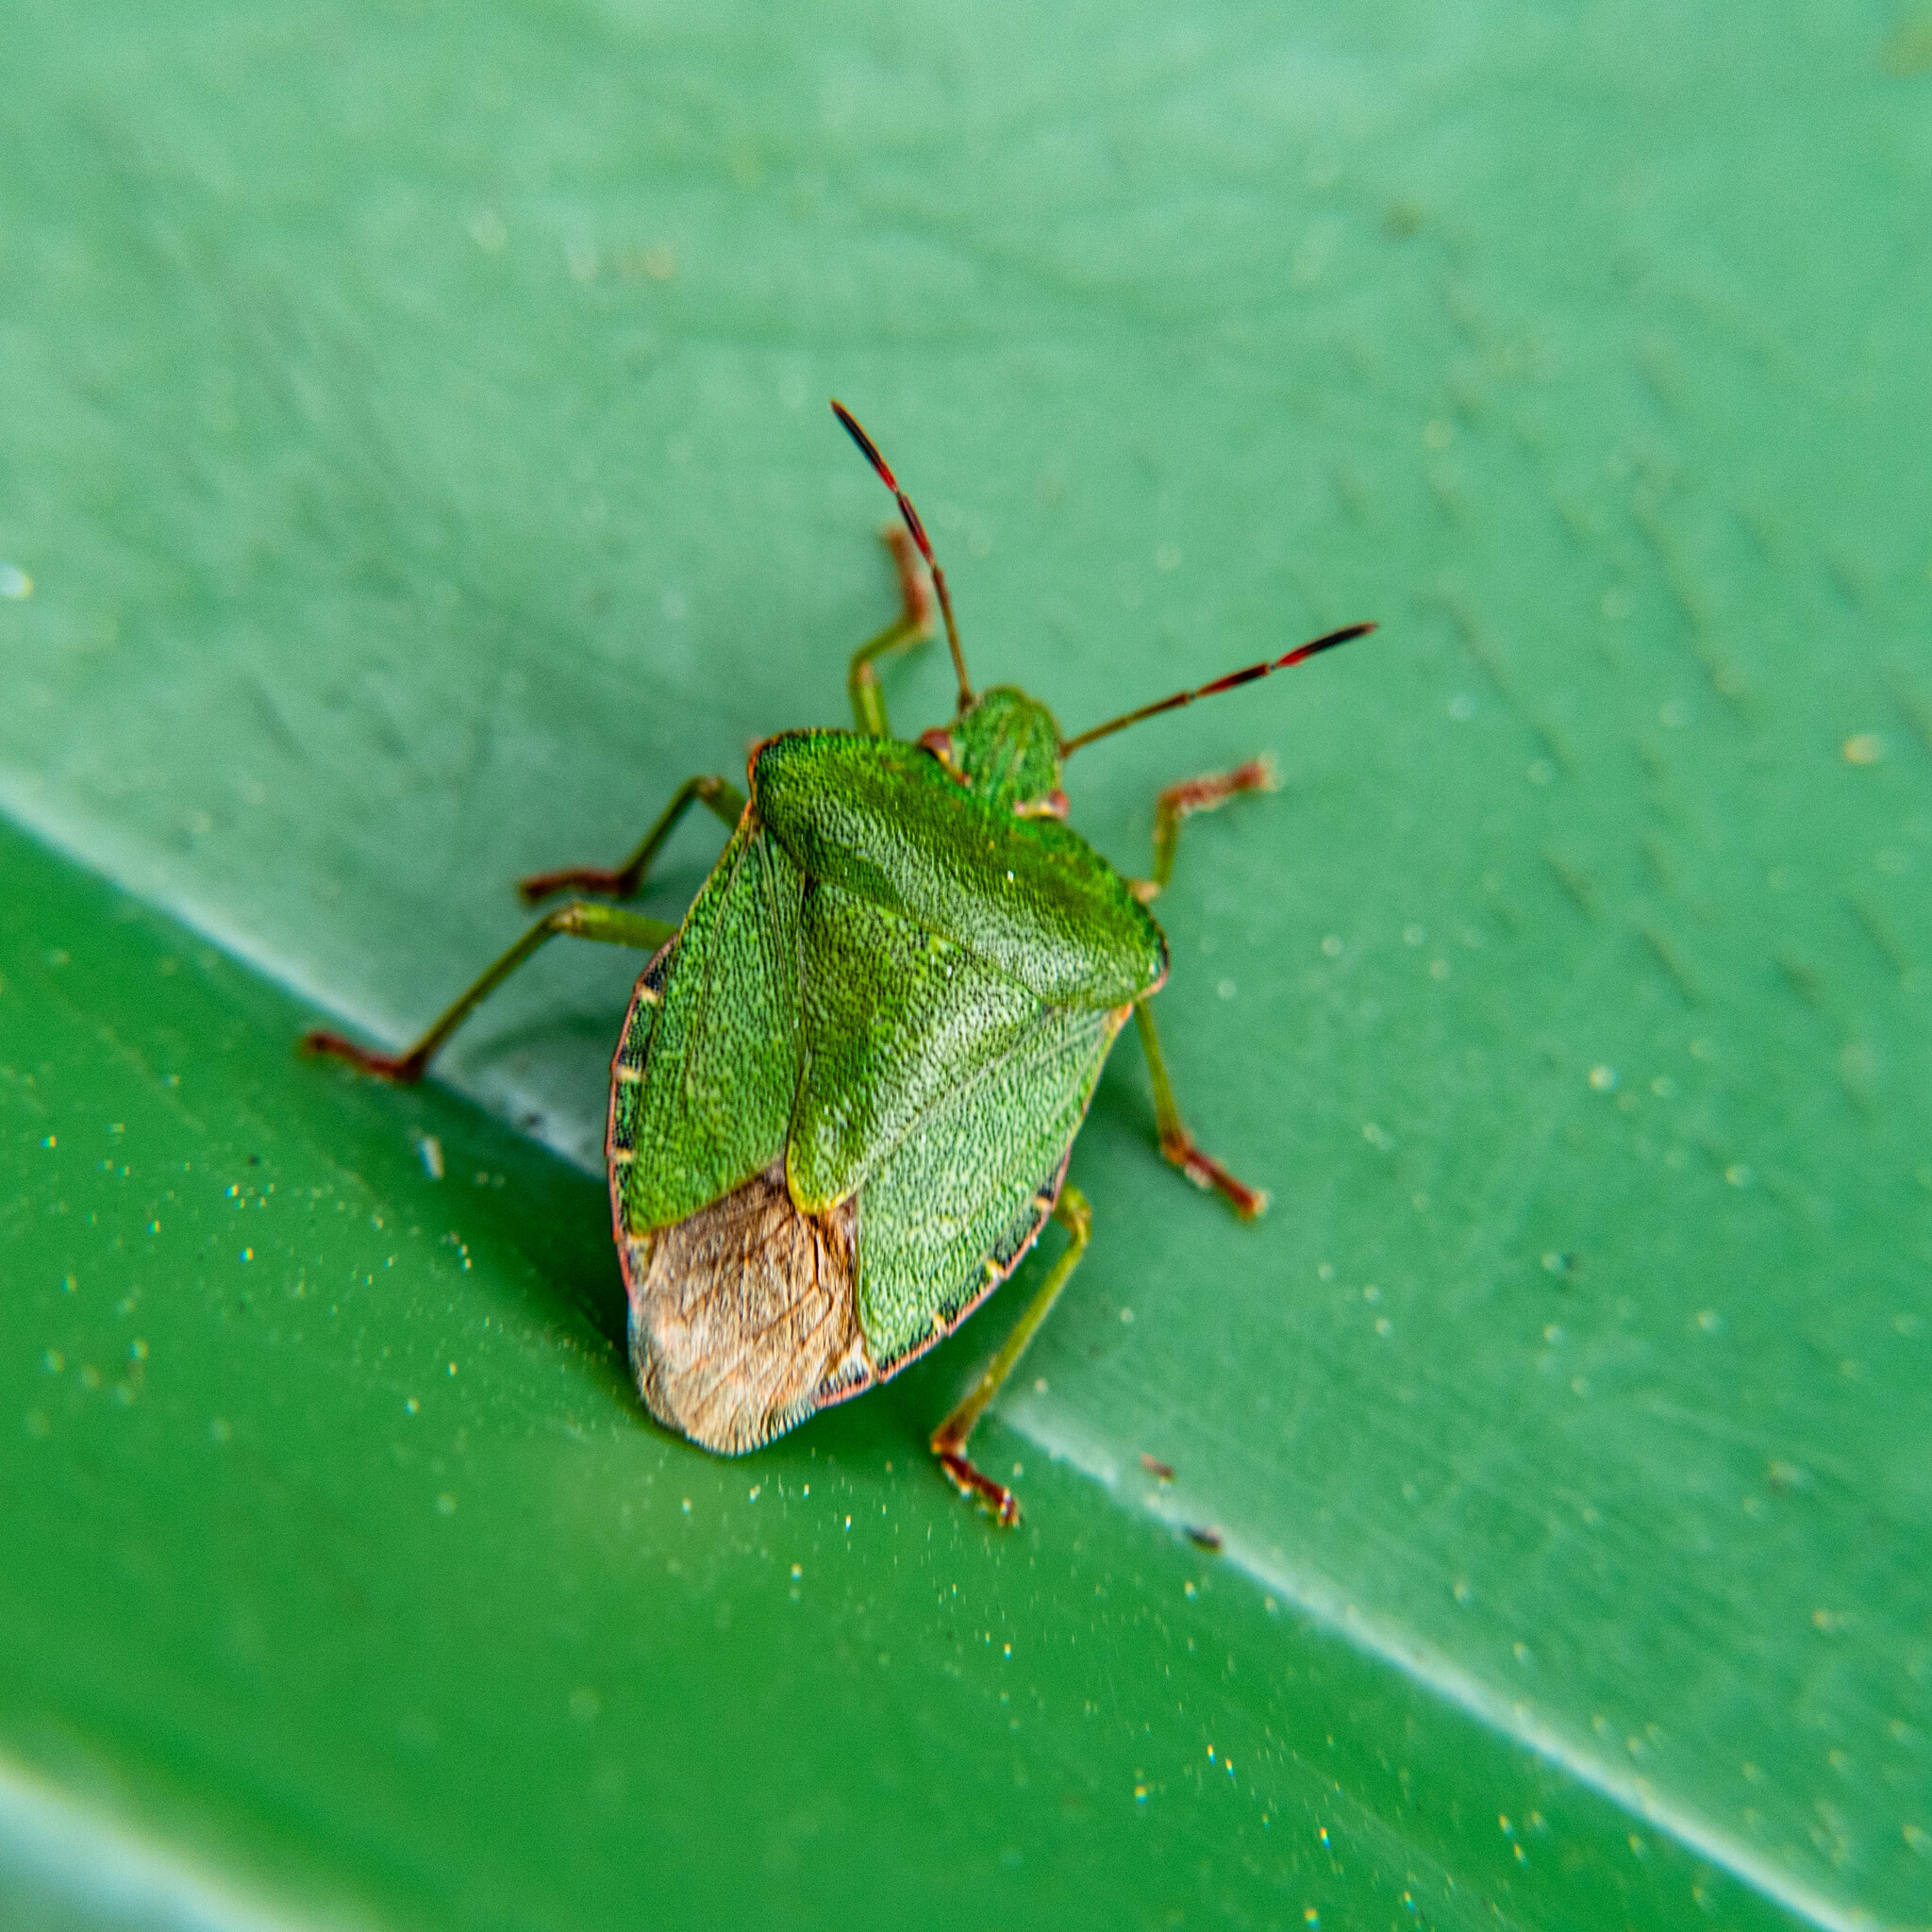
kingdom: Animalia
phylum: Arthropoda
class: Insecta
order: Hemiptera
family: Pentatomidae
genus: Palomena
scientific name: Palomena prasina
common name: Green shieldbug
